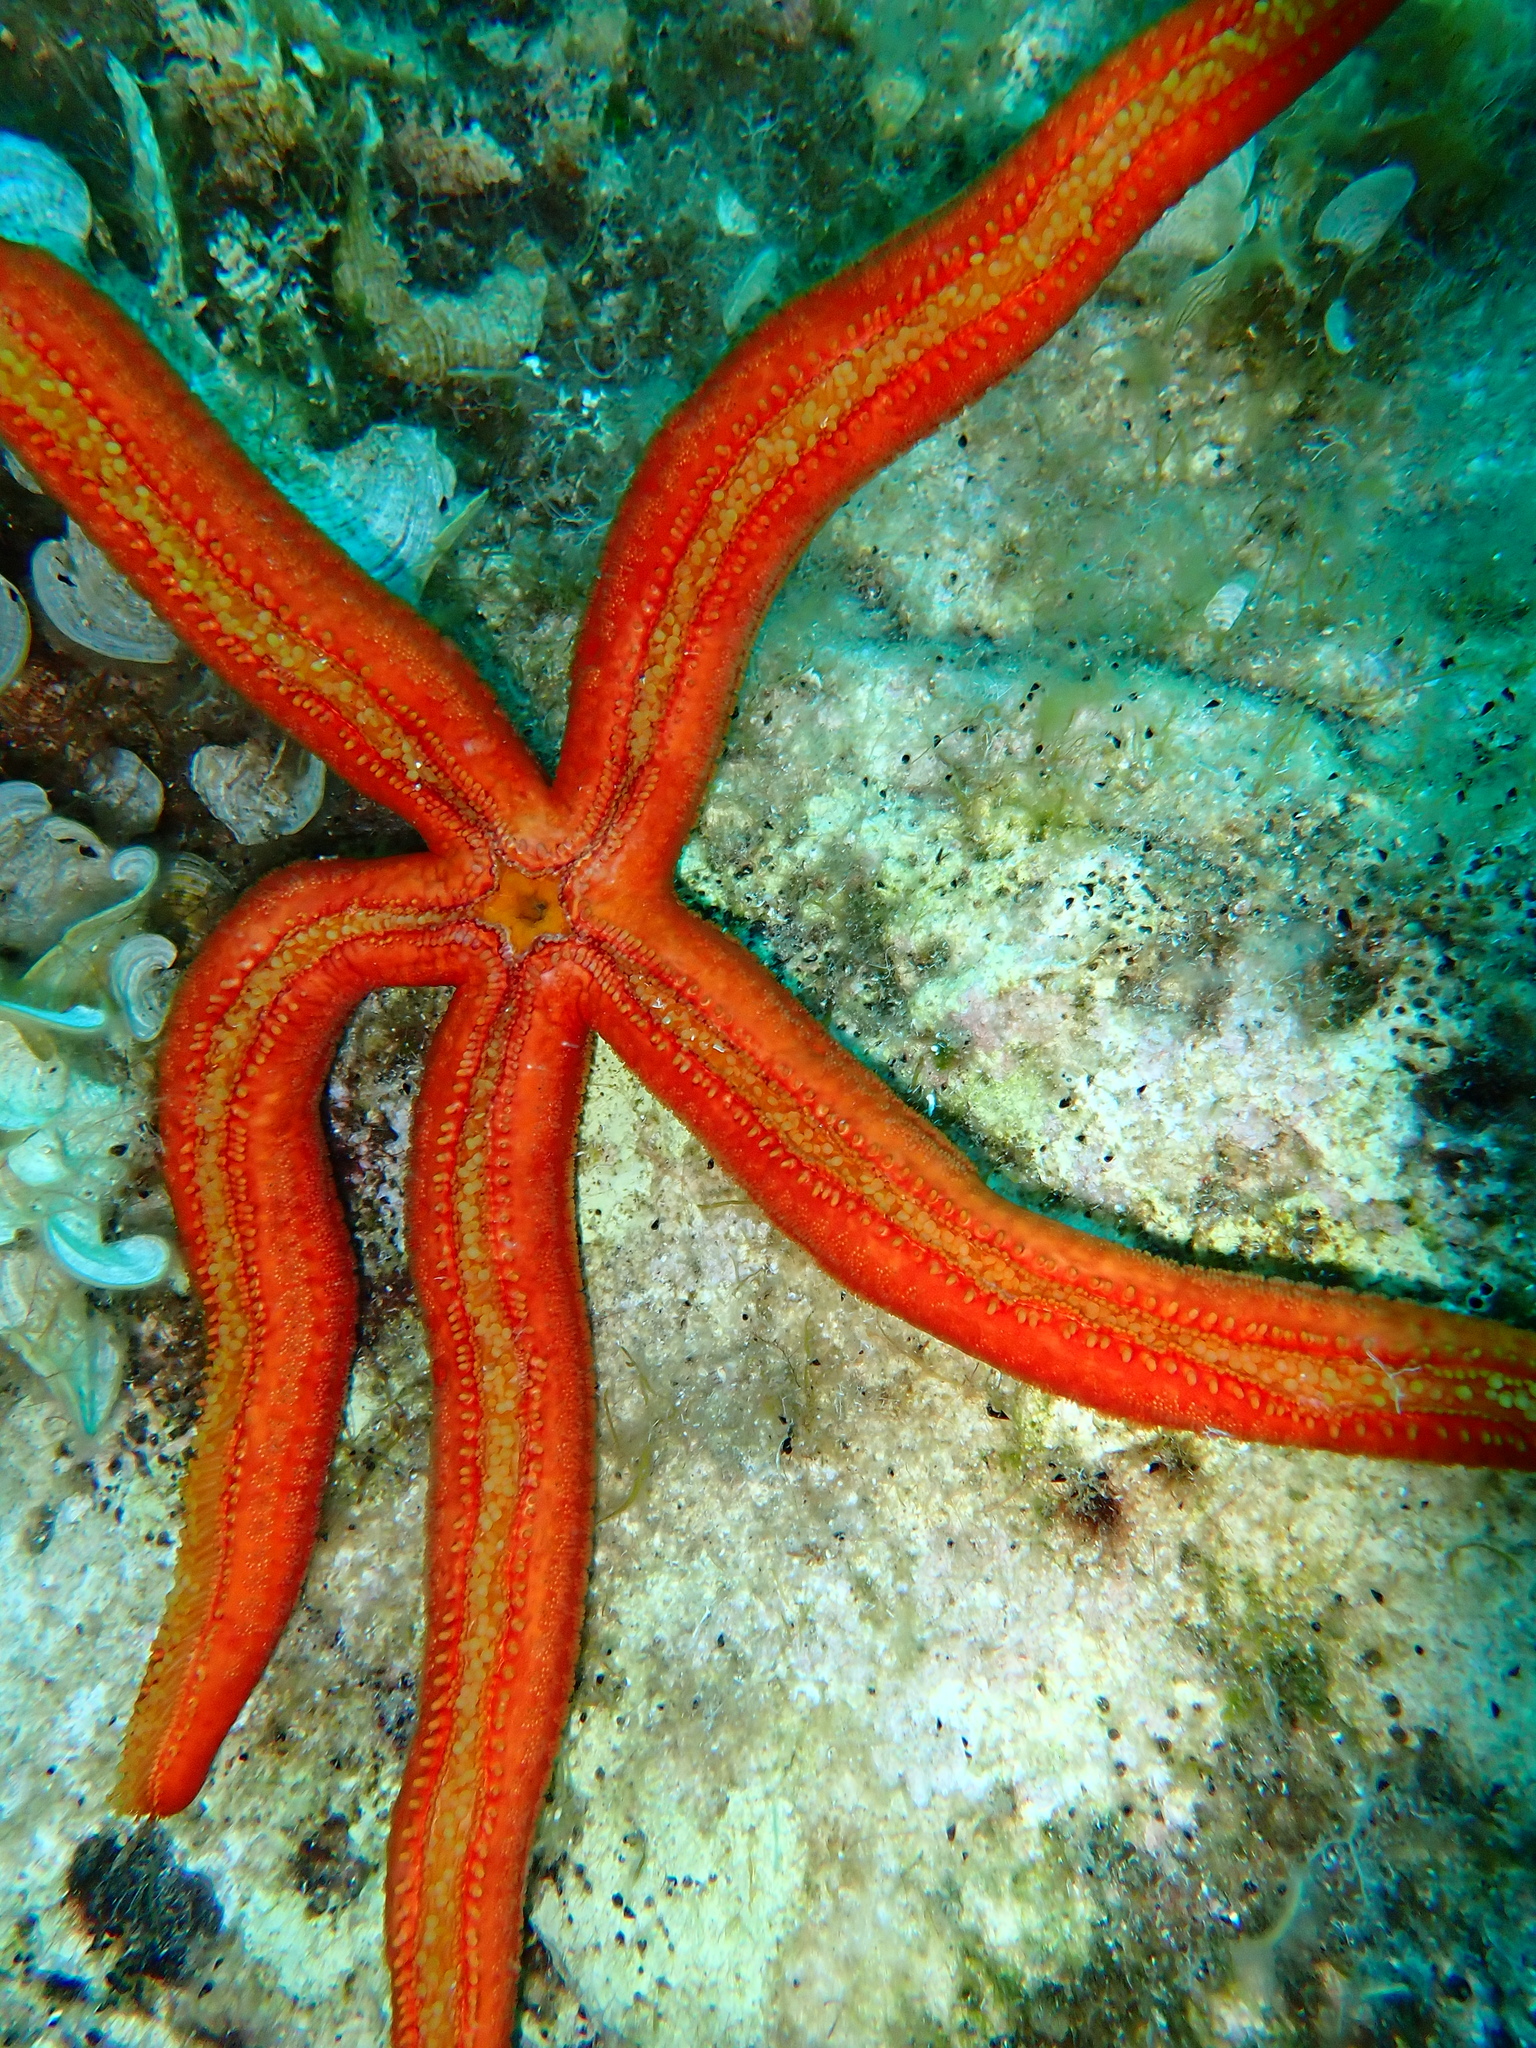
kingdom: Animalia
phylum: Echinodermata
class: Asteroidea
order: Valvatida
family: Ophidiasteridae
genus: Ophidiaster
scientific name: Ophidiaster ophidianus
